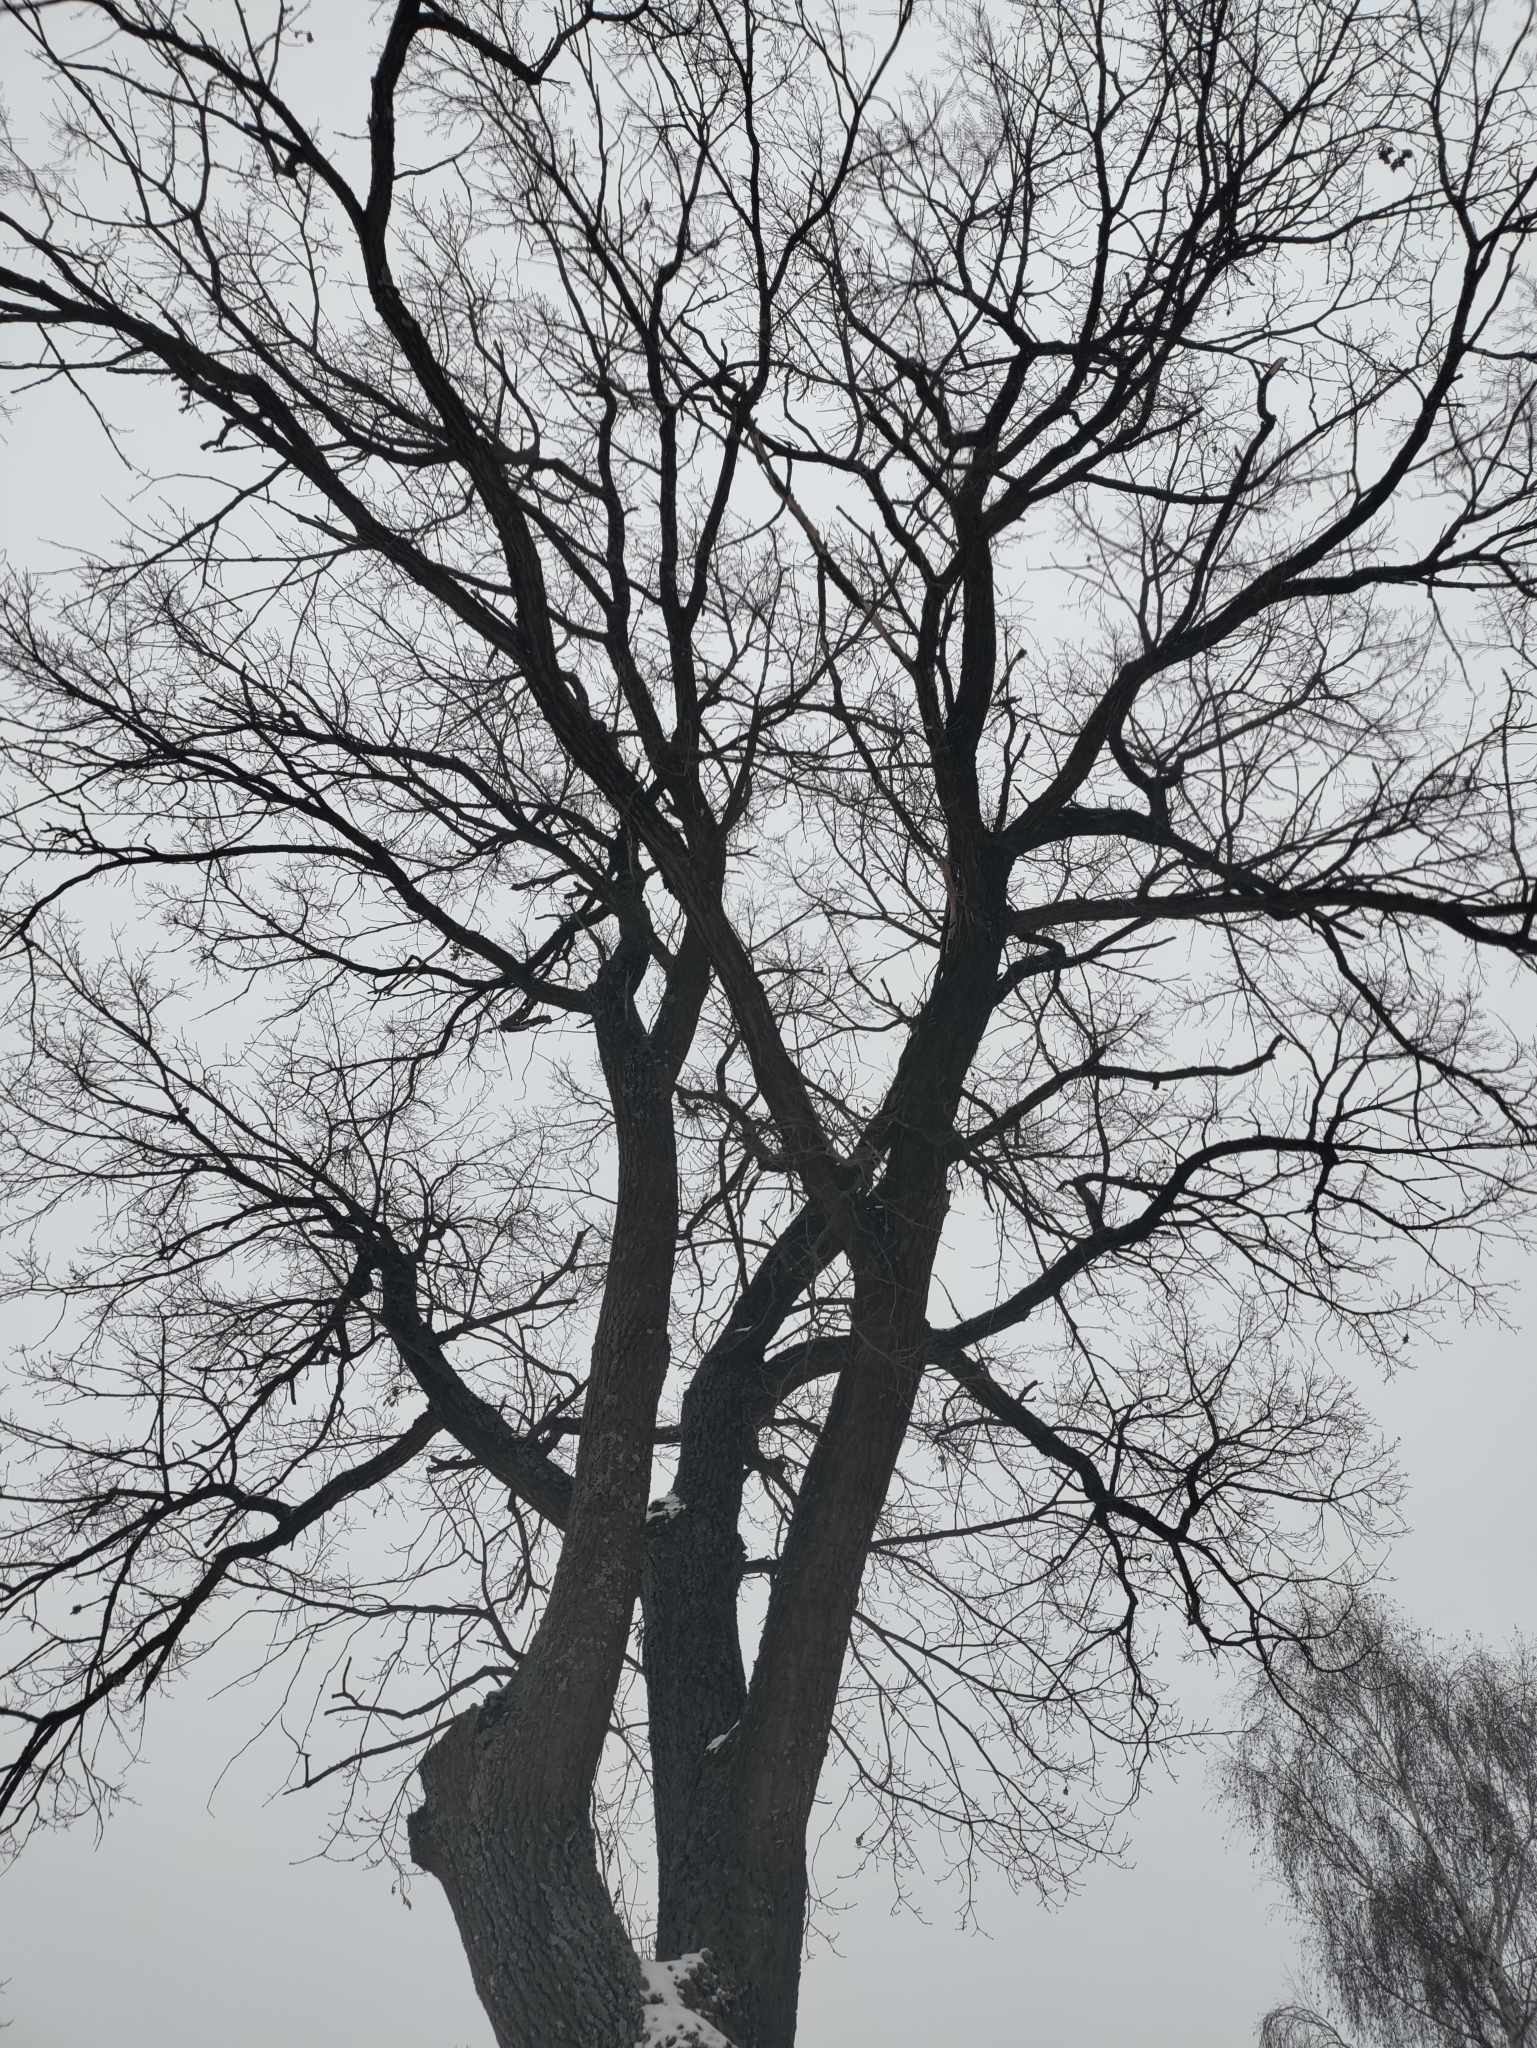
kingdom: Plantae
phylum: Tracheophyta
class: Magnoliopsida
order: Fagales
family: Fagaceae
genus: Quercus
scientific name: Quercus robur
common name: Pedunculate oak
